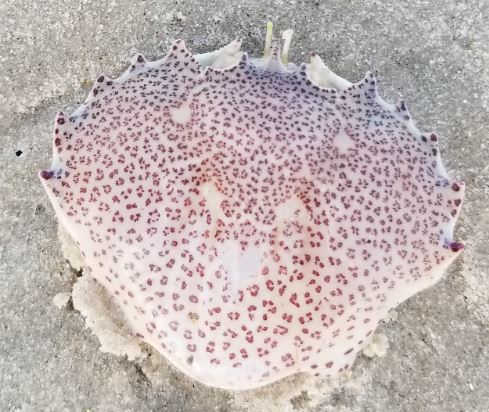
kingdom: Animalia
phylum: Arthropoda
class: Malacostraca
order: Decapoda
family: Ovalipidae
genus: Ovalipes
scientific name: Ovalipes ocellatus
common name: Lady crab
